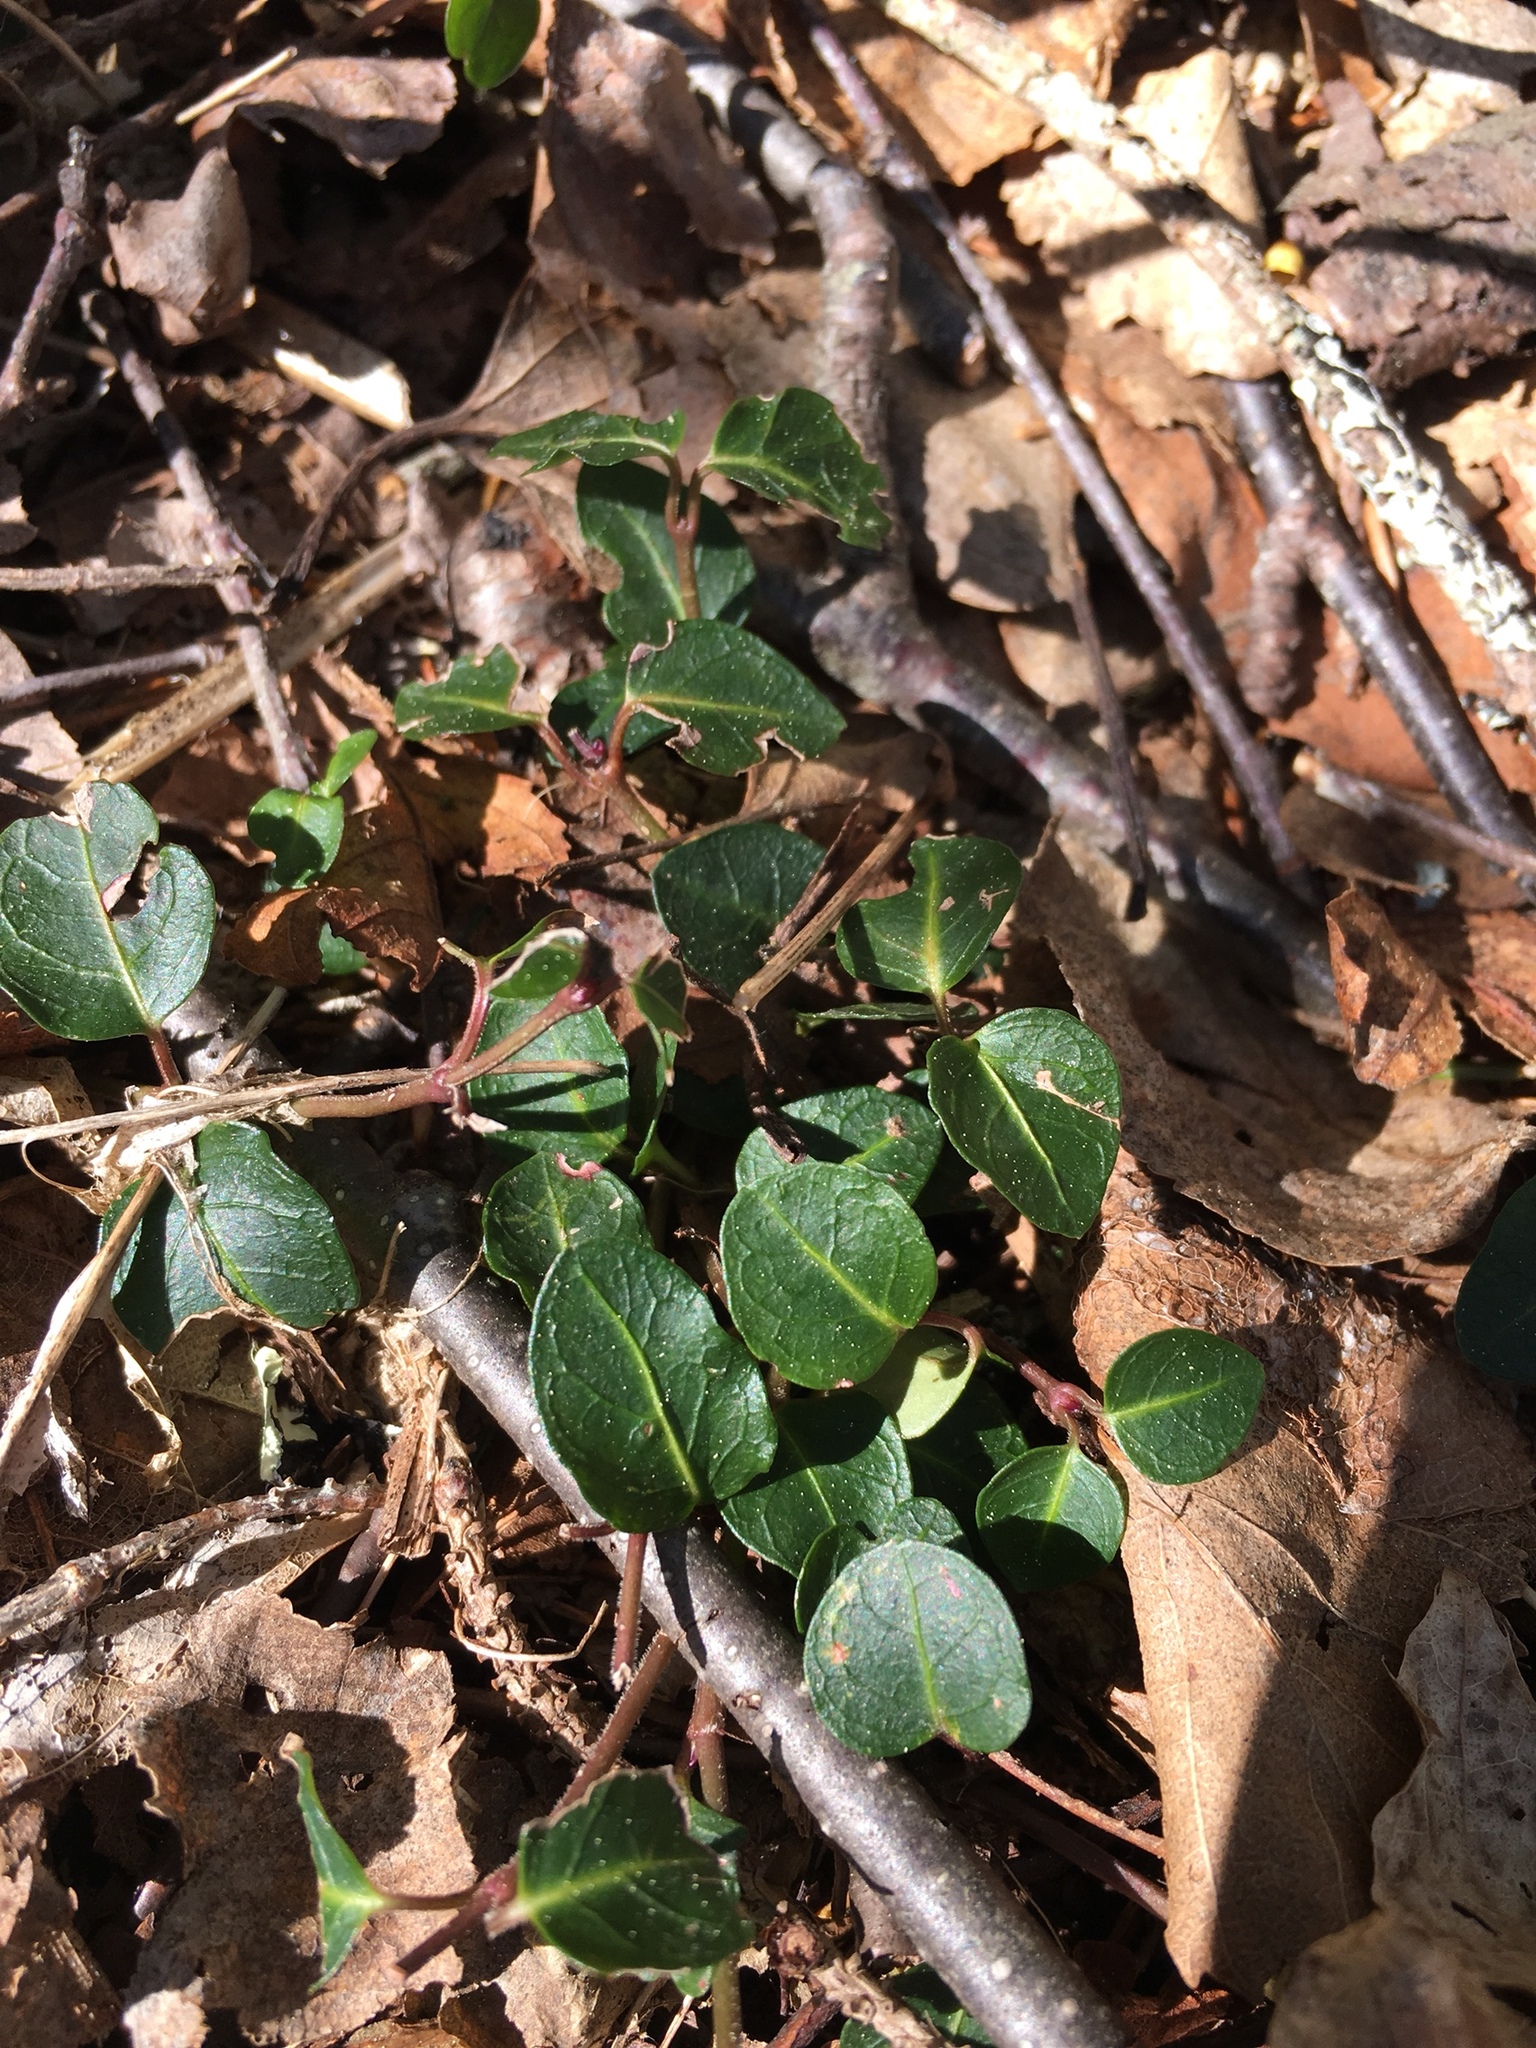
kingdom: Plantae
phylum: Tracheophyta
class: Magnoliopsida
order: Gentianales
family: Rubiaceae
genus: Mitchella
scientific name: Mitchella repens
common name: Partridge-berry
